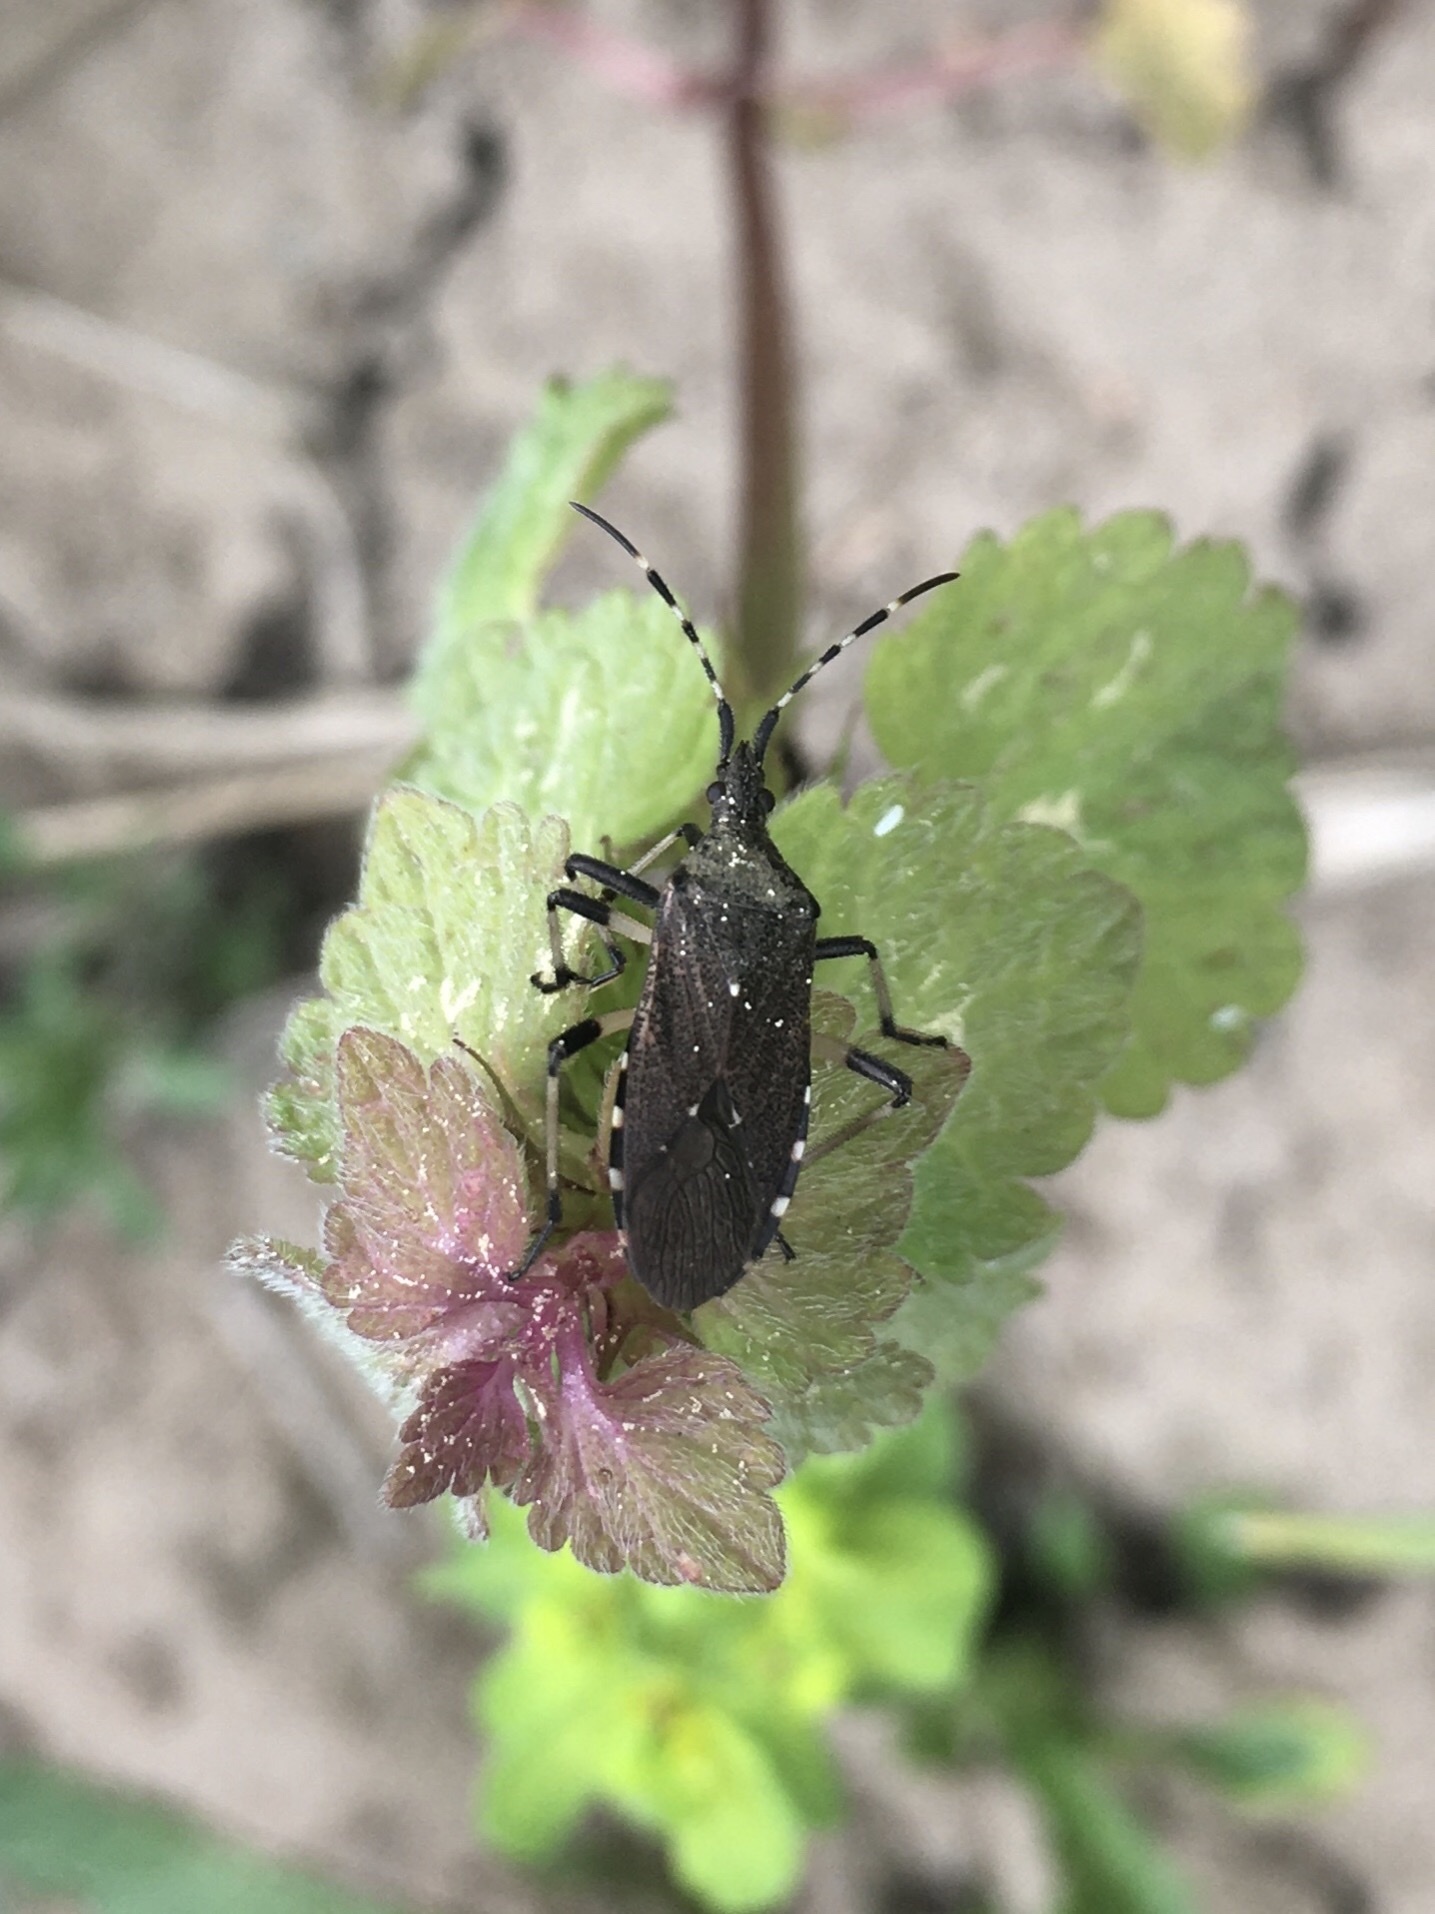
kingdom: Animalia
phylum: Arthropoda
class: Insecta
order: Hemiptera
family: Stenocephalidae
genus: Dicranocephalus
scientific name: Dicranocephalus agilis
